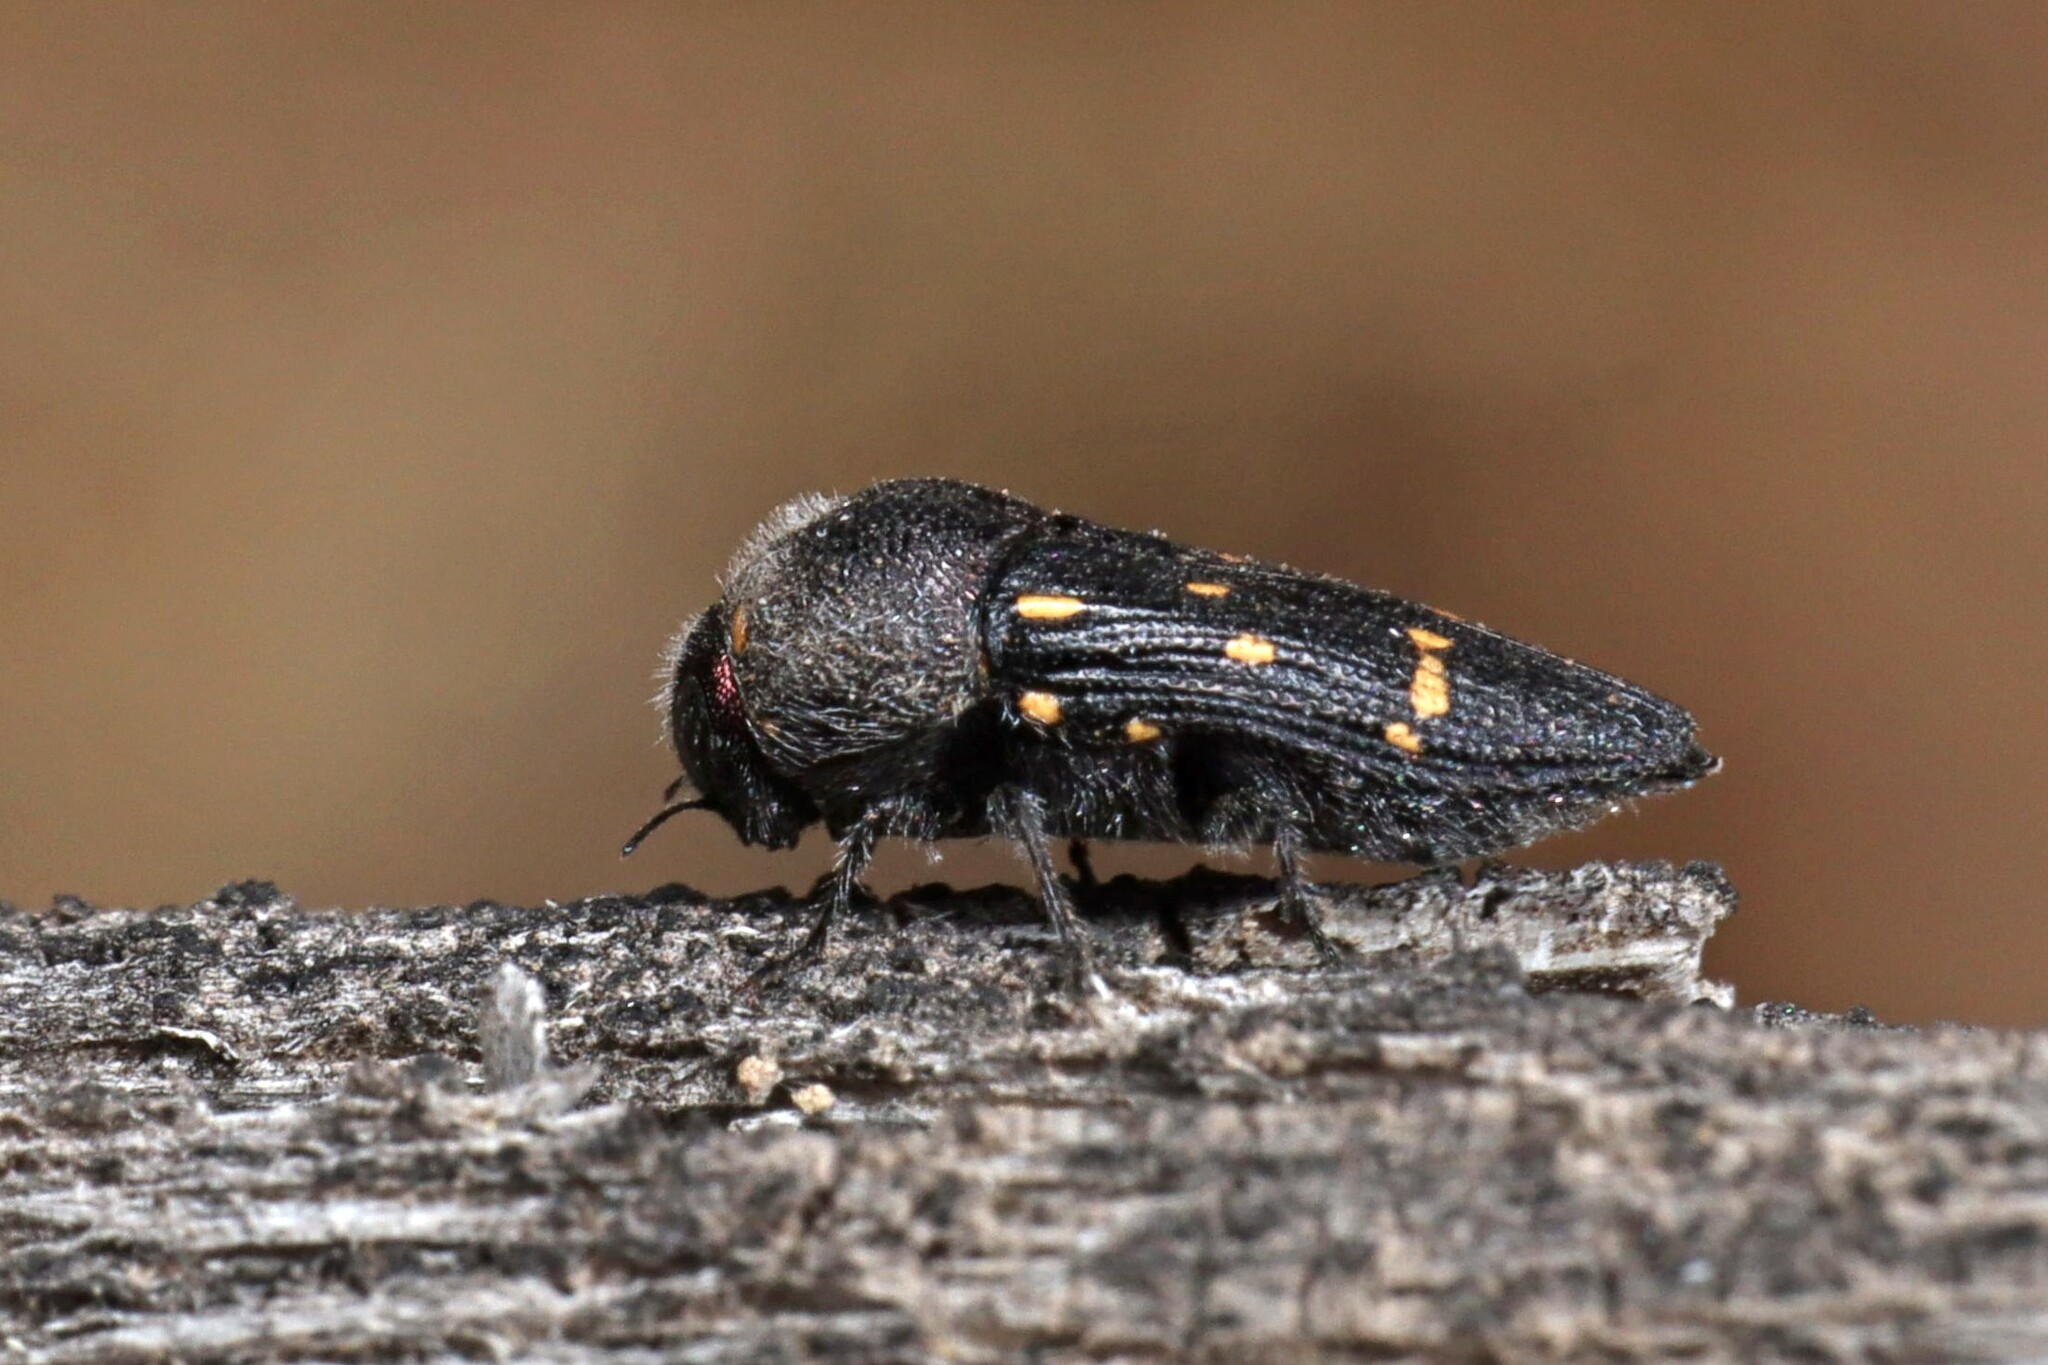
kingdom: Animalia
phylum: Arthropoda
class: Insecta
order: Coleoptera
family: Buprestidae
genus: Neocypetes
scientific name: Neocypetes guttulatus
